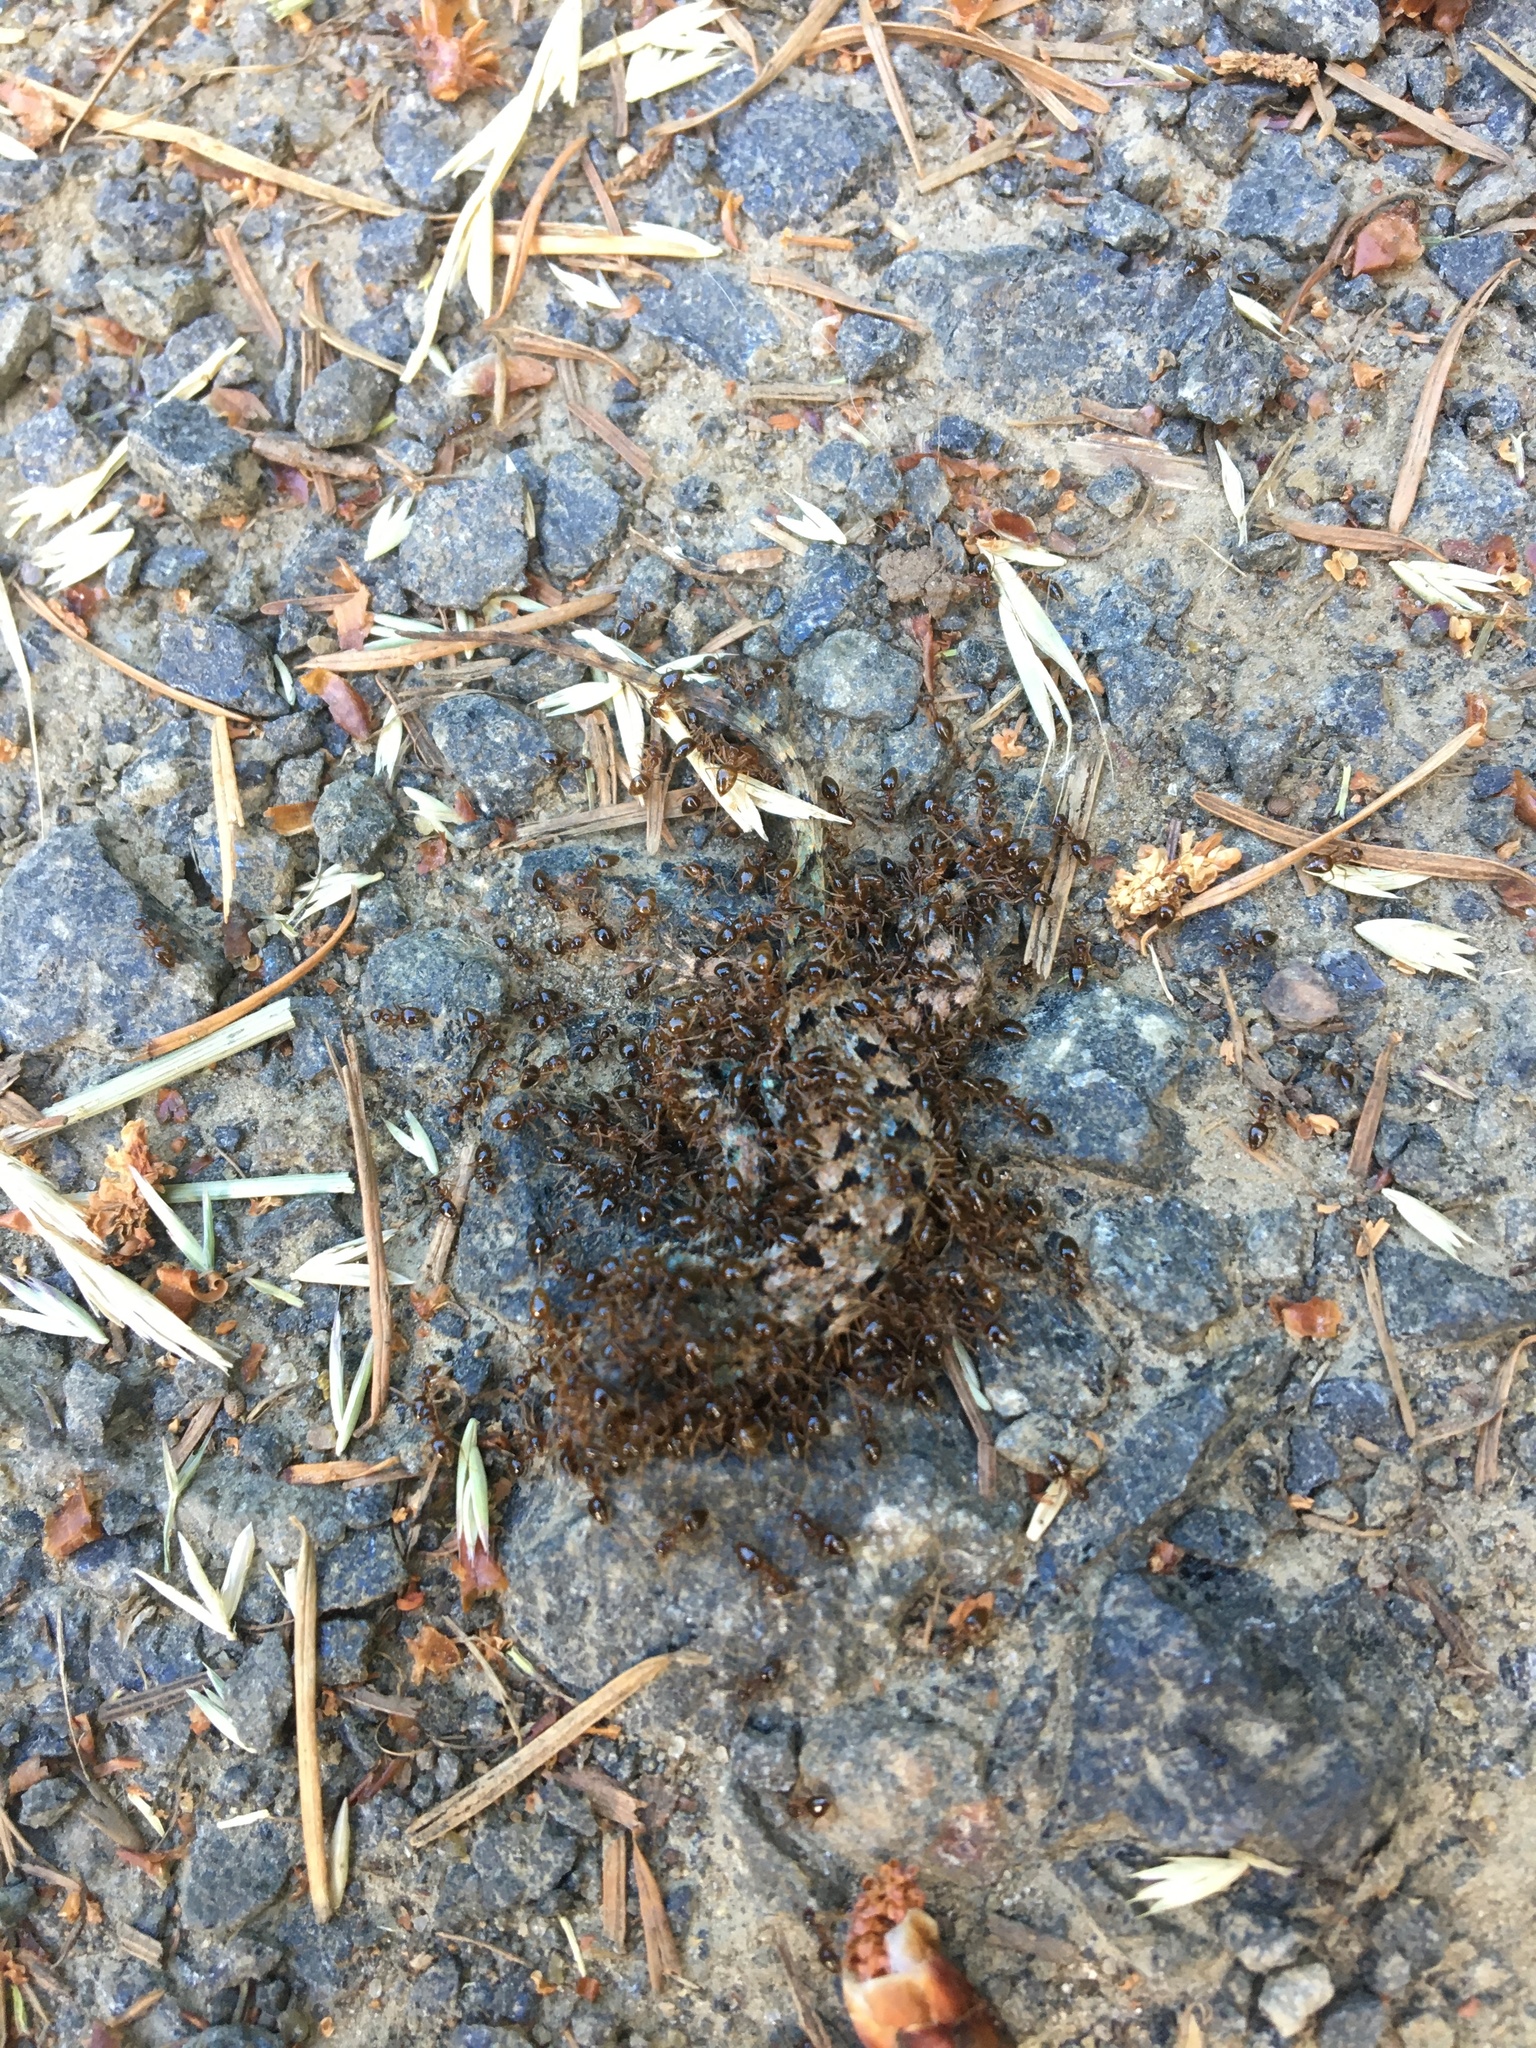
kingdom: Animalia
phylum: Chordata
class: Squamata
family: Phrynosomatidae
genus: Sceloporus
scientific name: Sceloporus occidentalis
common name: Western fence lizard
